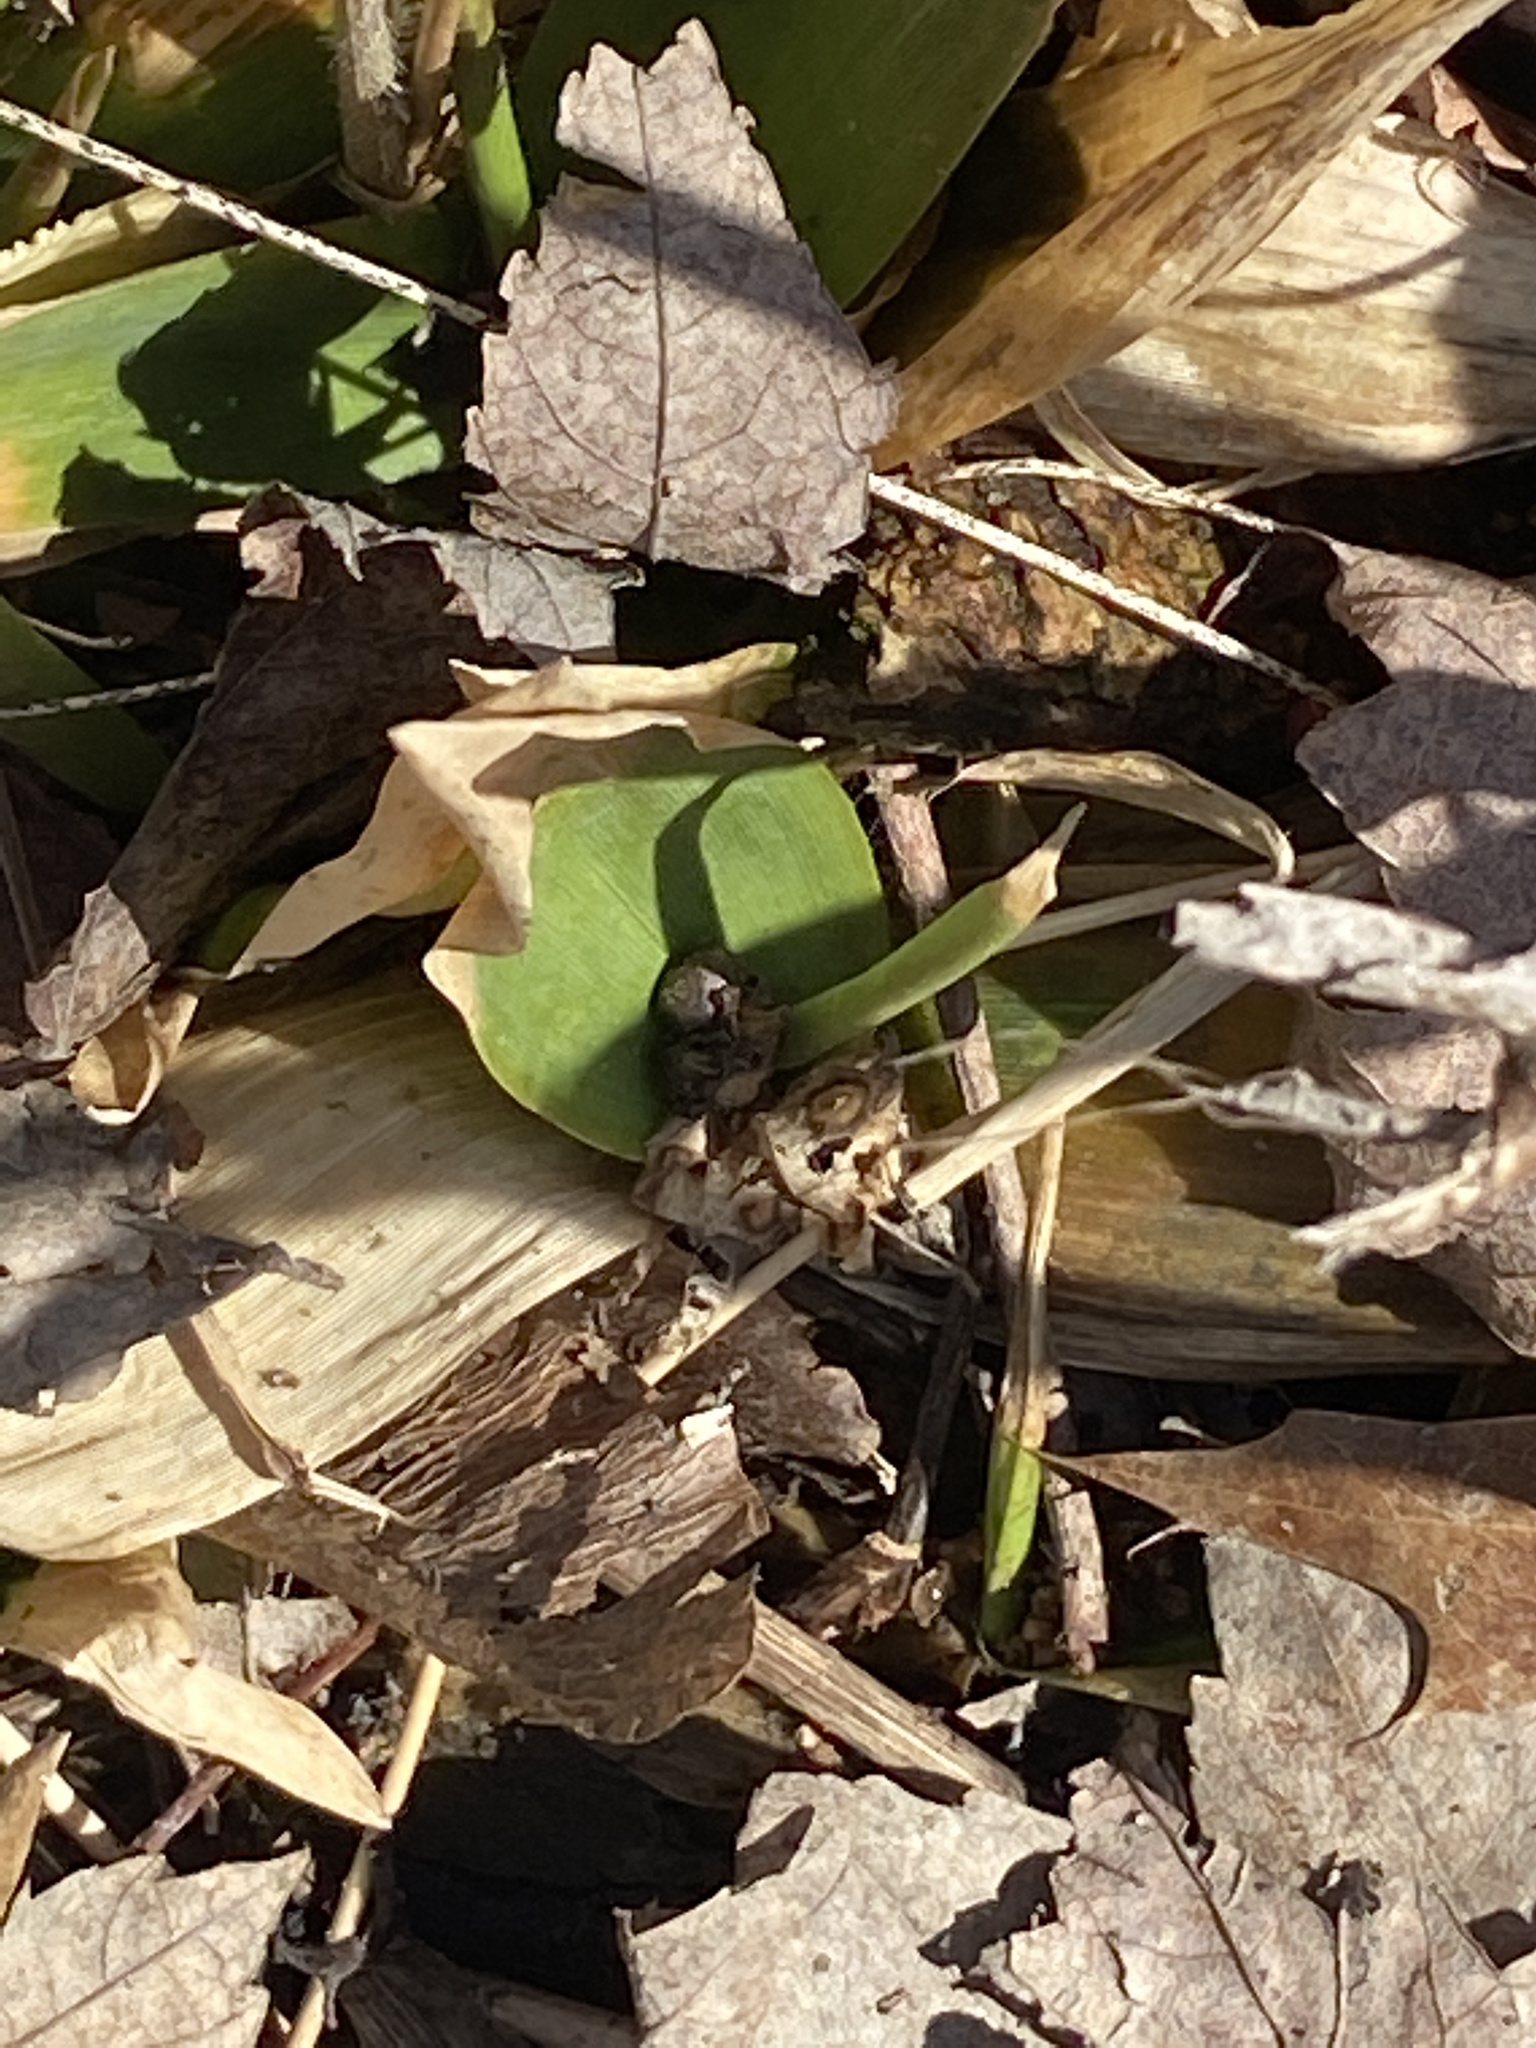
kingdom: Plantae
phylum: Tracheophyta
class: Liliopsida
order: Poales
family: Poaceae
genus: Dichanthelium
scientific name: Dichanthelium clandestinum
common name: Deer-tongue grass
